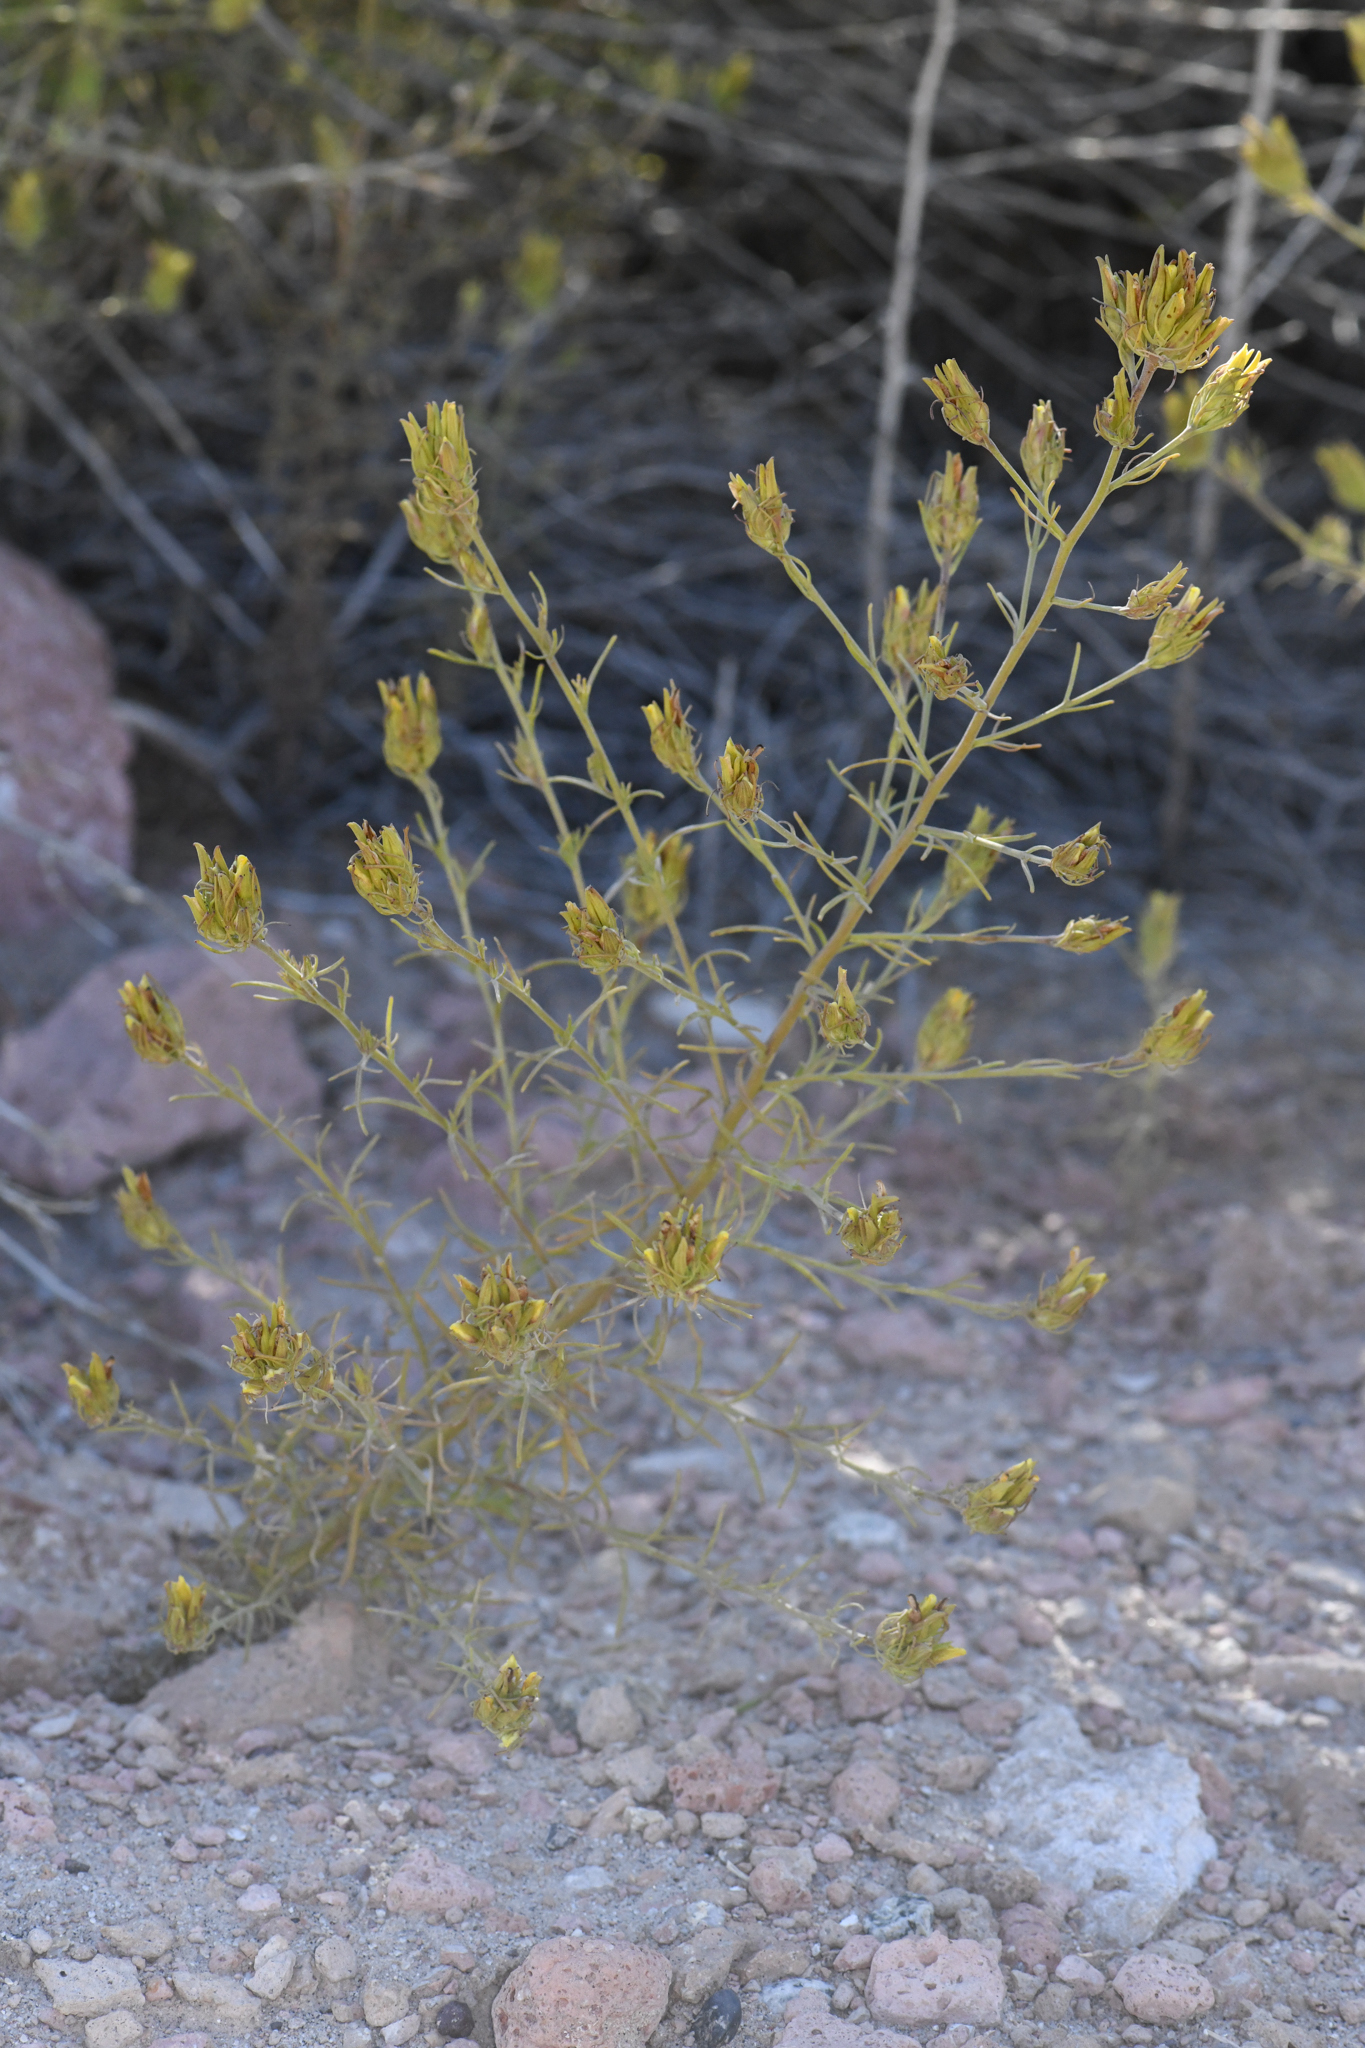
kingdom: Plantae
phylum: Tracheophyta
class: Magnoliopsida
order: Lamiales
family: Orobanchaceae
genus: Cordylanthus
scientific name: Cordylanthus ramosus
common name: Much-branched bird's-beak
